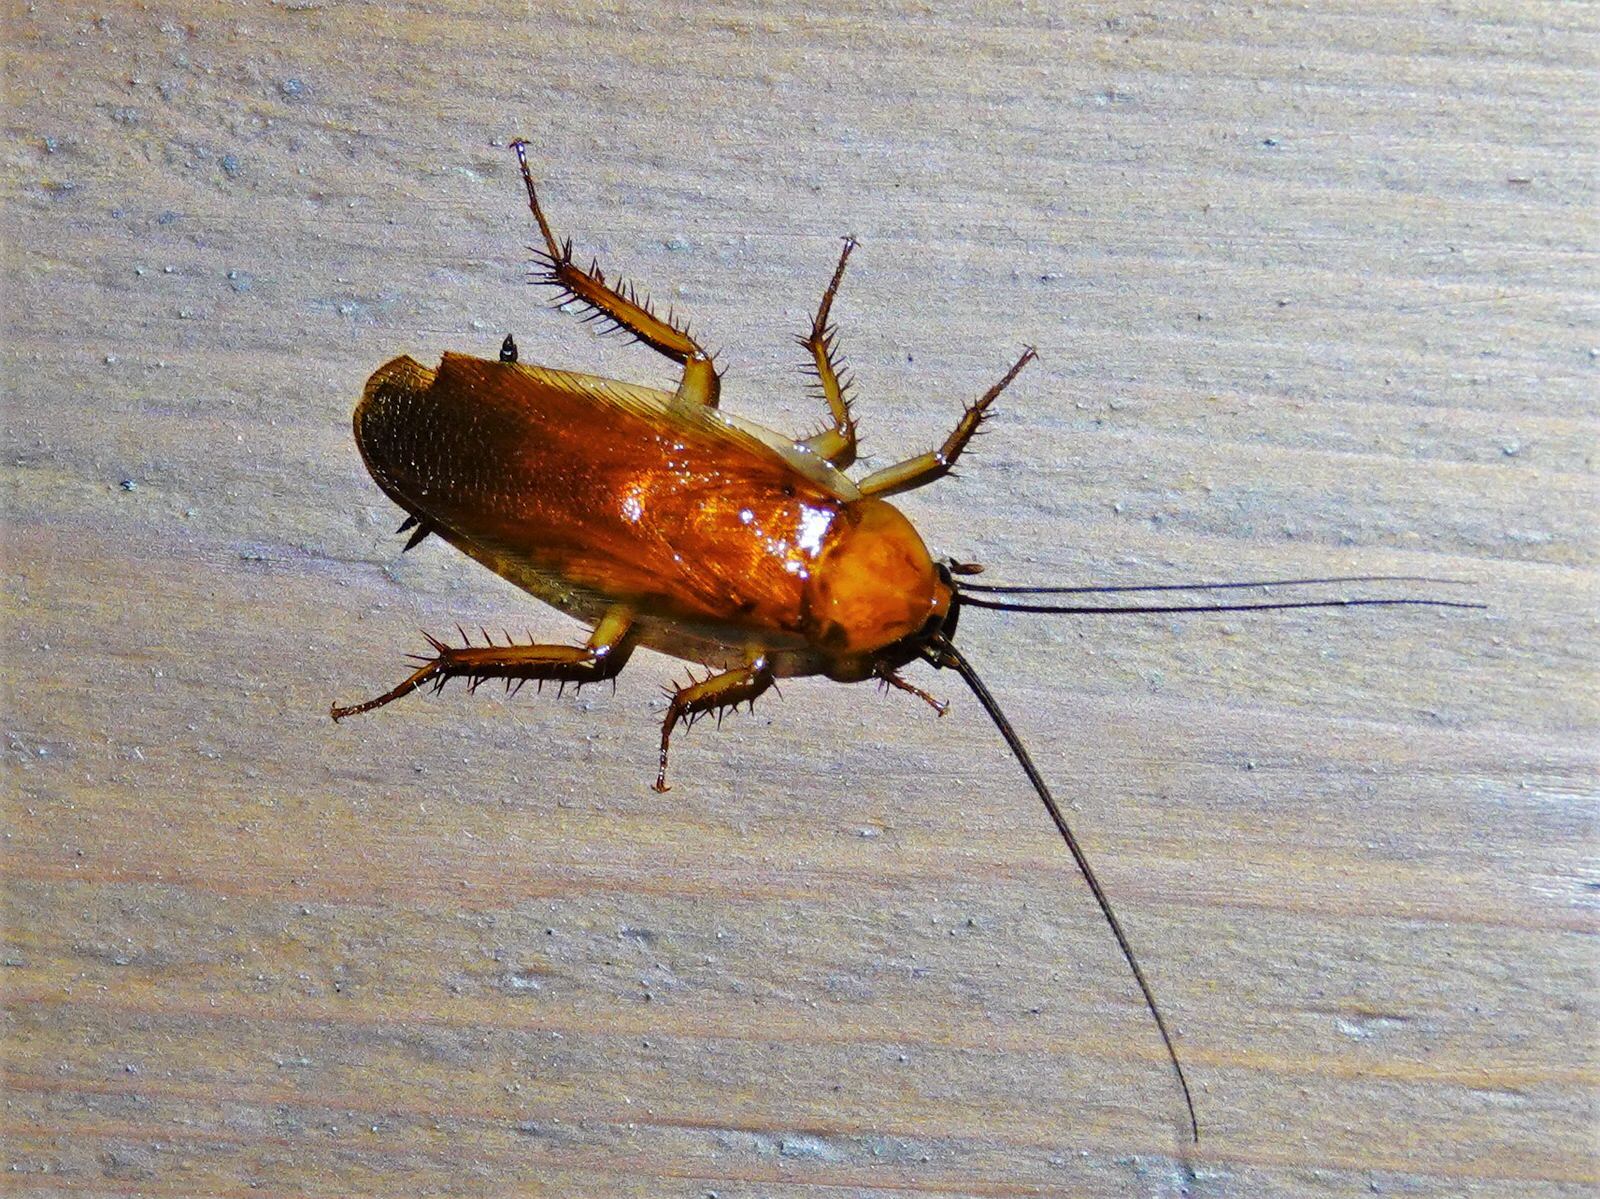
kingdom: Animalia
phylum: Arthropoda
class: Insecta
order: Blattodea
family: Ectobiidae
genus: Neotemnopteryx
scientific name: Neotemnopteryx fulva
